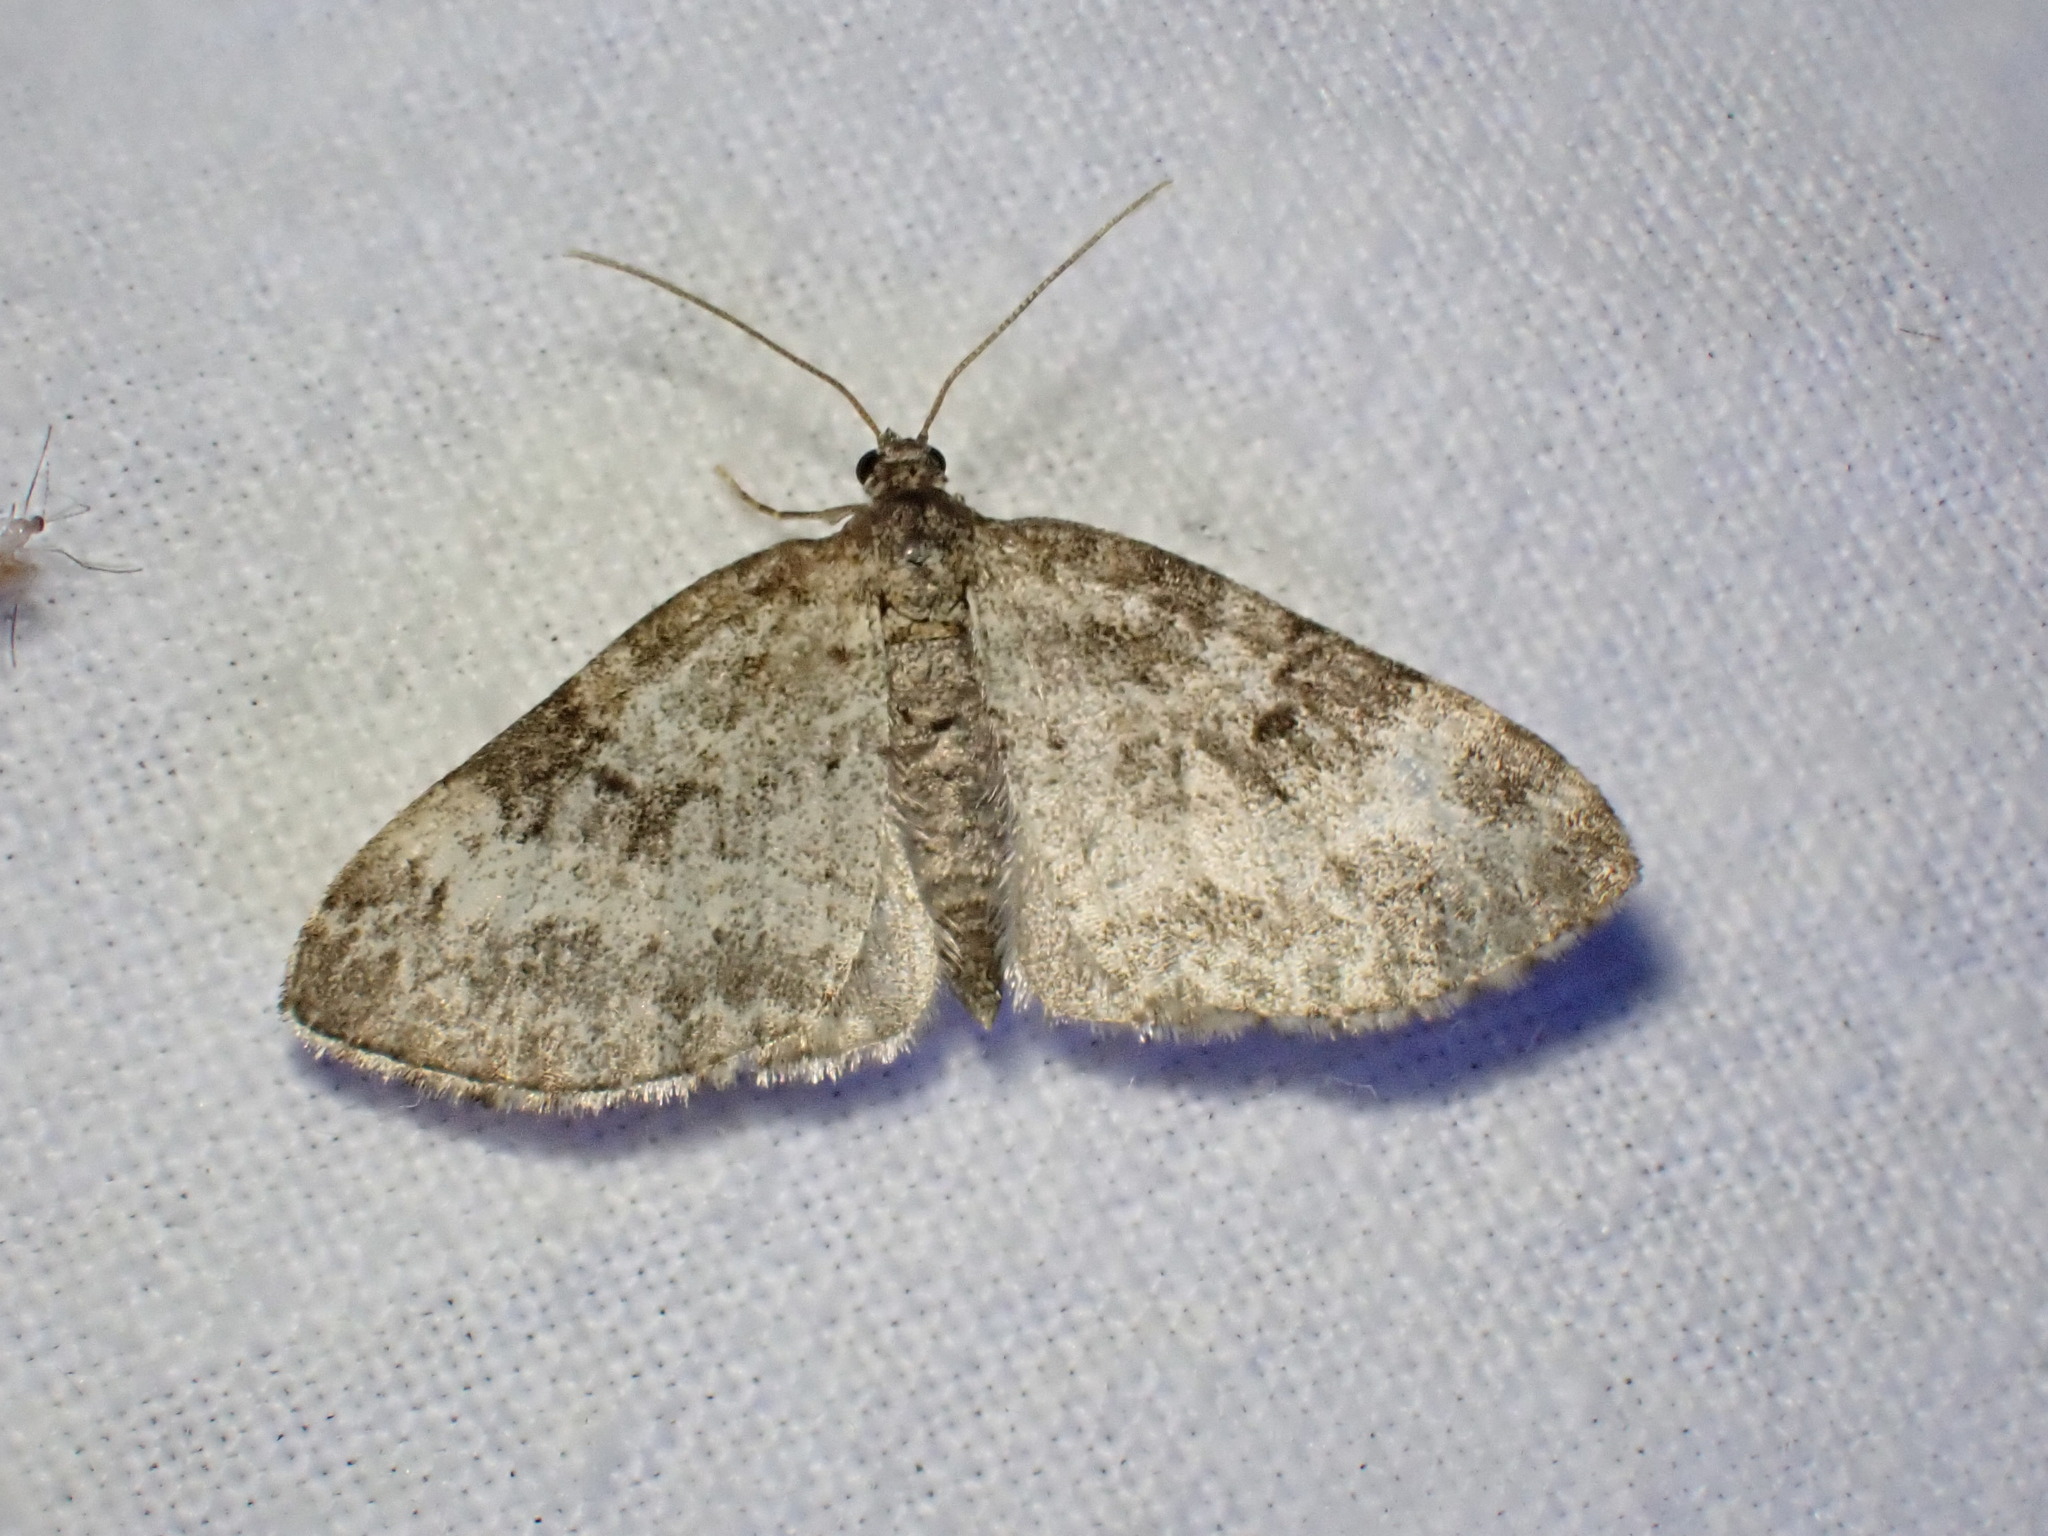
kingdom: Animalia
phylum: Arthropoda
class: Insecta
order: Lepidoptera
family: Geometridae
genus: Pterapherapteryx
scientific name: Pterapherapteryx sexalata
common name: Small seraphim
